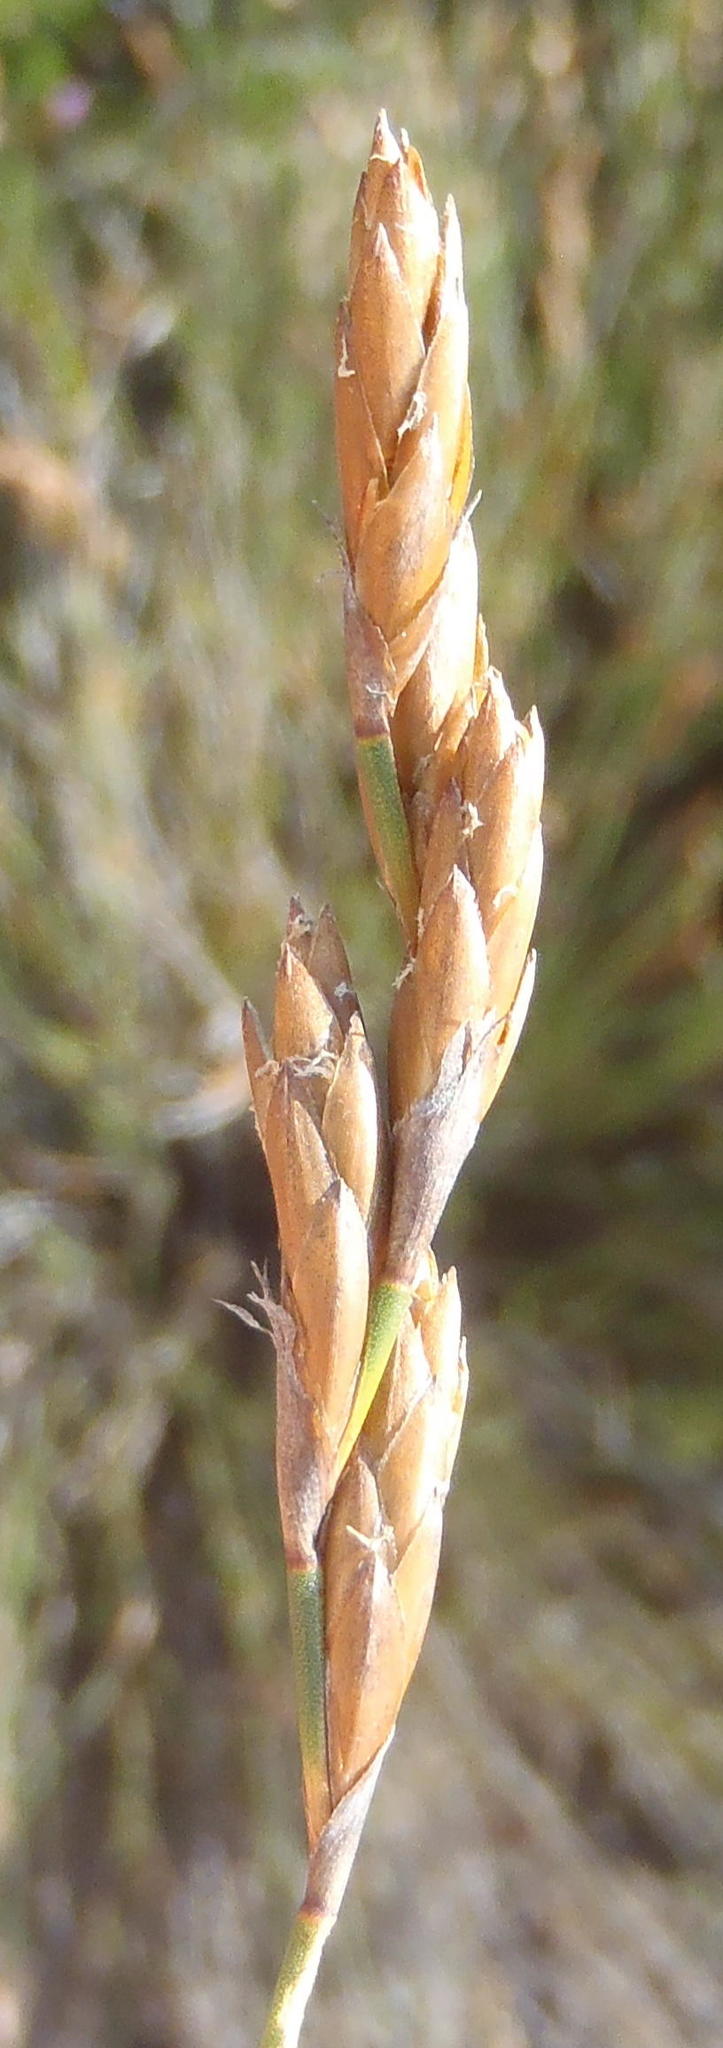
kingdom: Plantae
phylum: Tracheophyta
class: Liliopsida
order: Poales
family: Restionaceae
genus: Restio
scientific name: Restio triticeus
